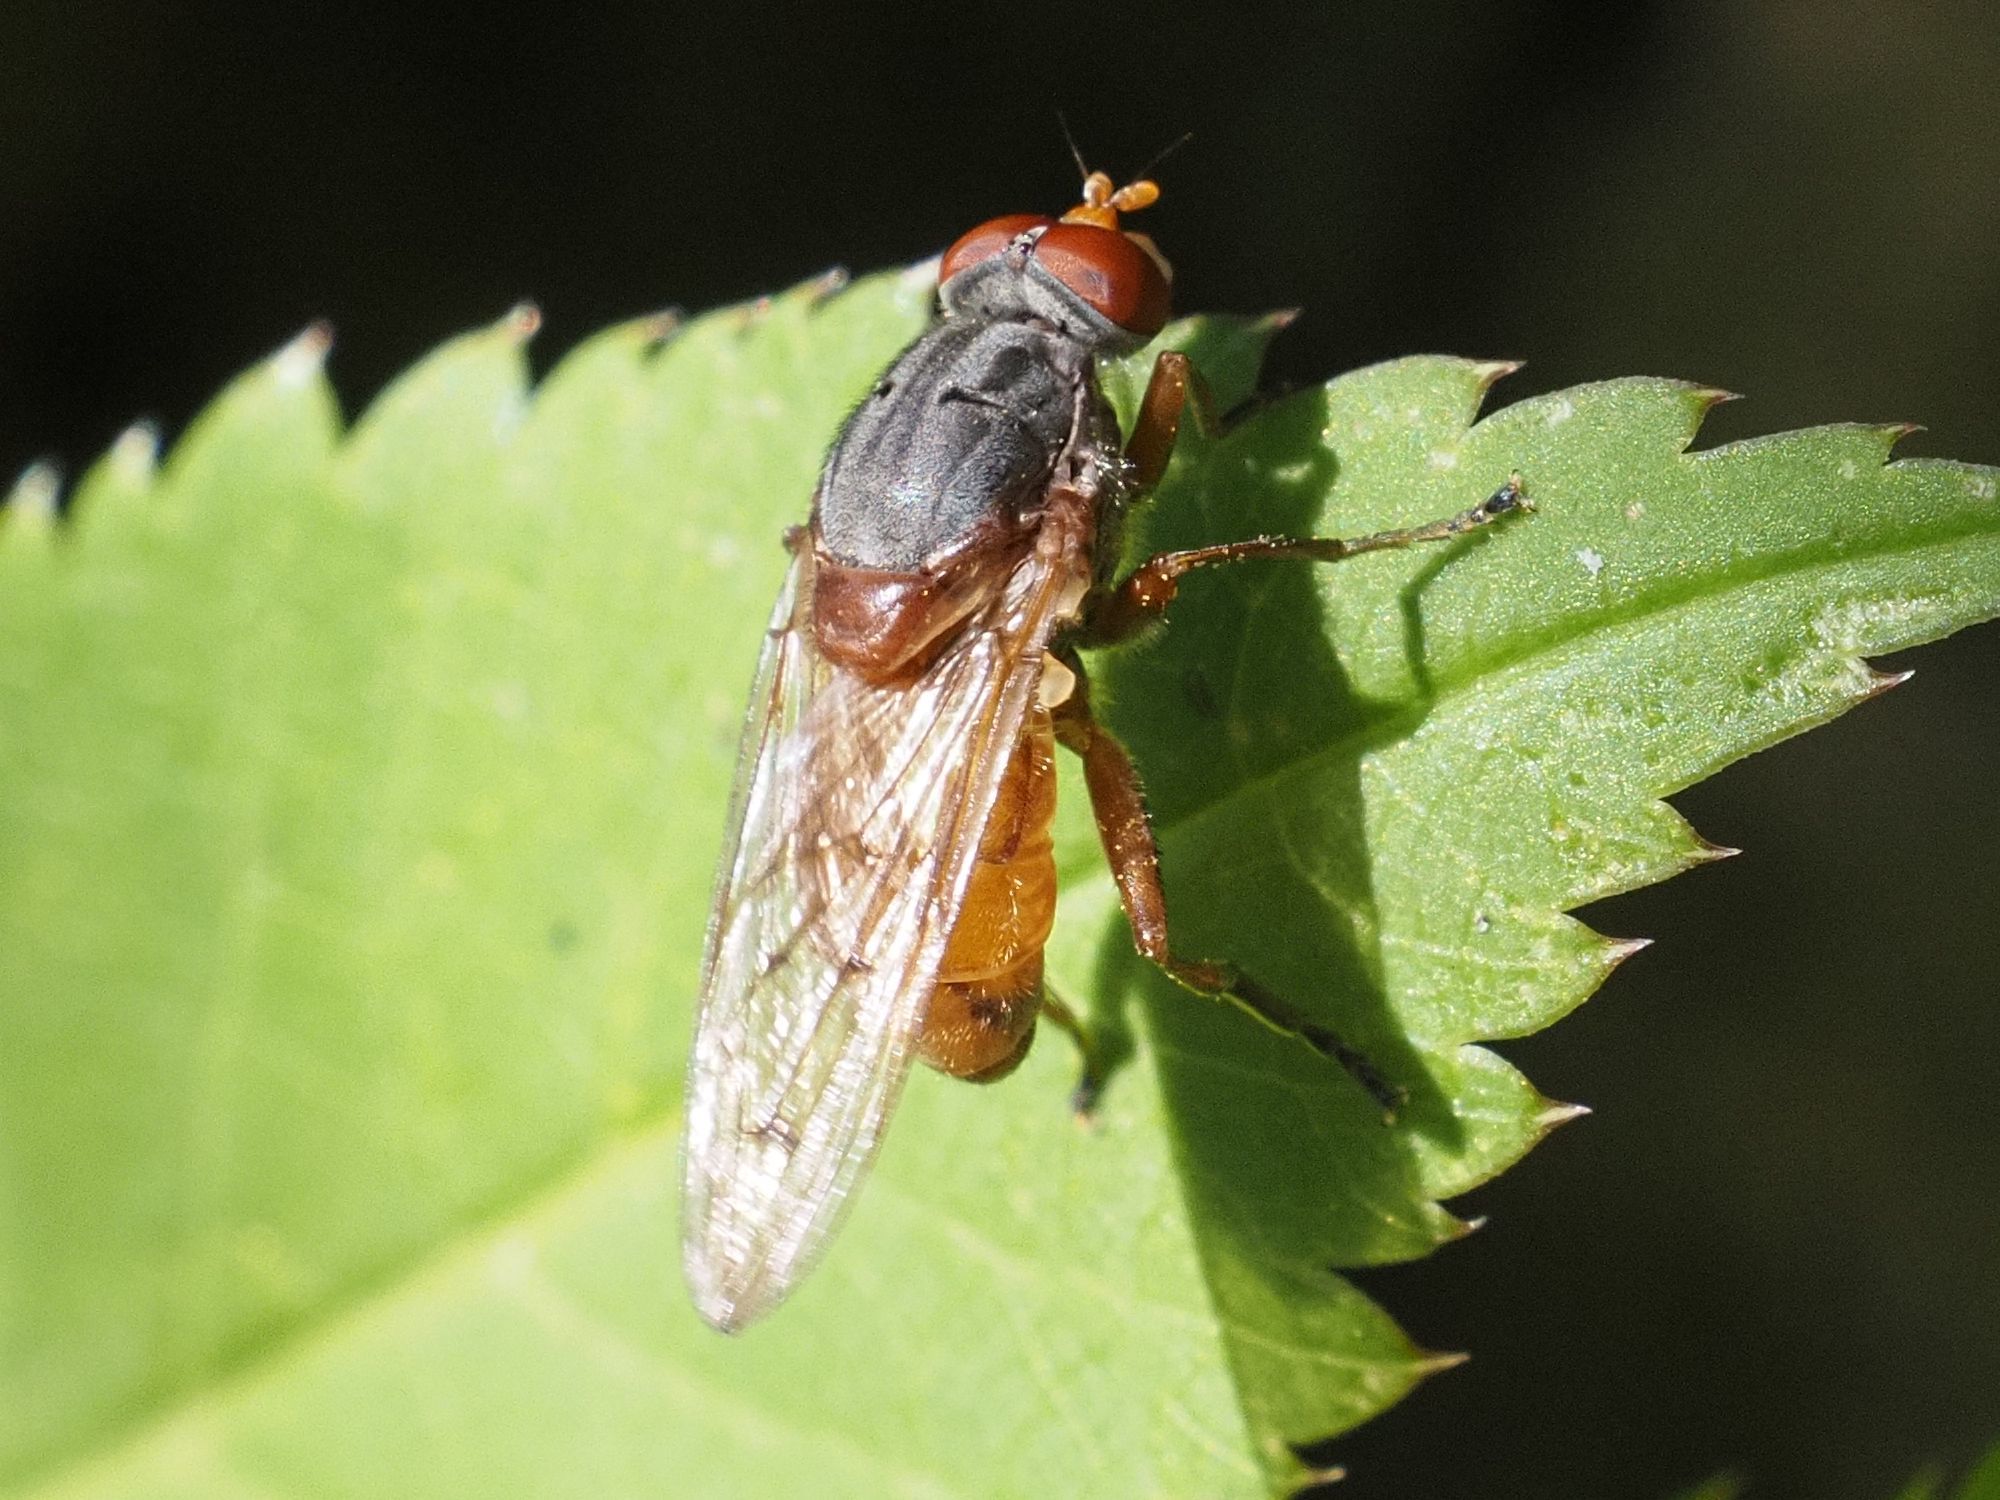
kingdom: Animalia
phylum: Arthropoda
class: Insecta
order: Diptera
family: Syrphidae
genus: Brachyopa
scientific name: Brachyopa maculipennis
